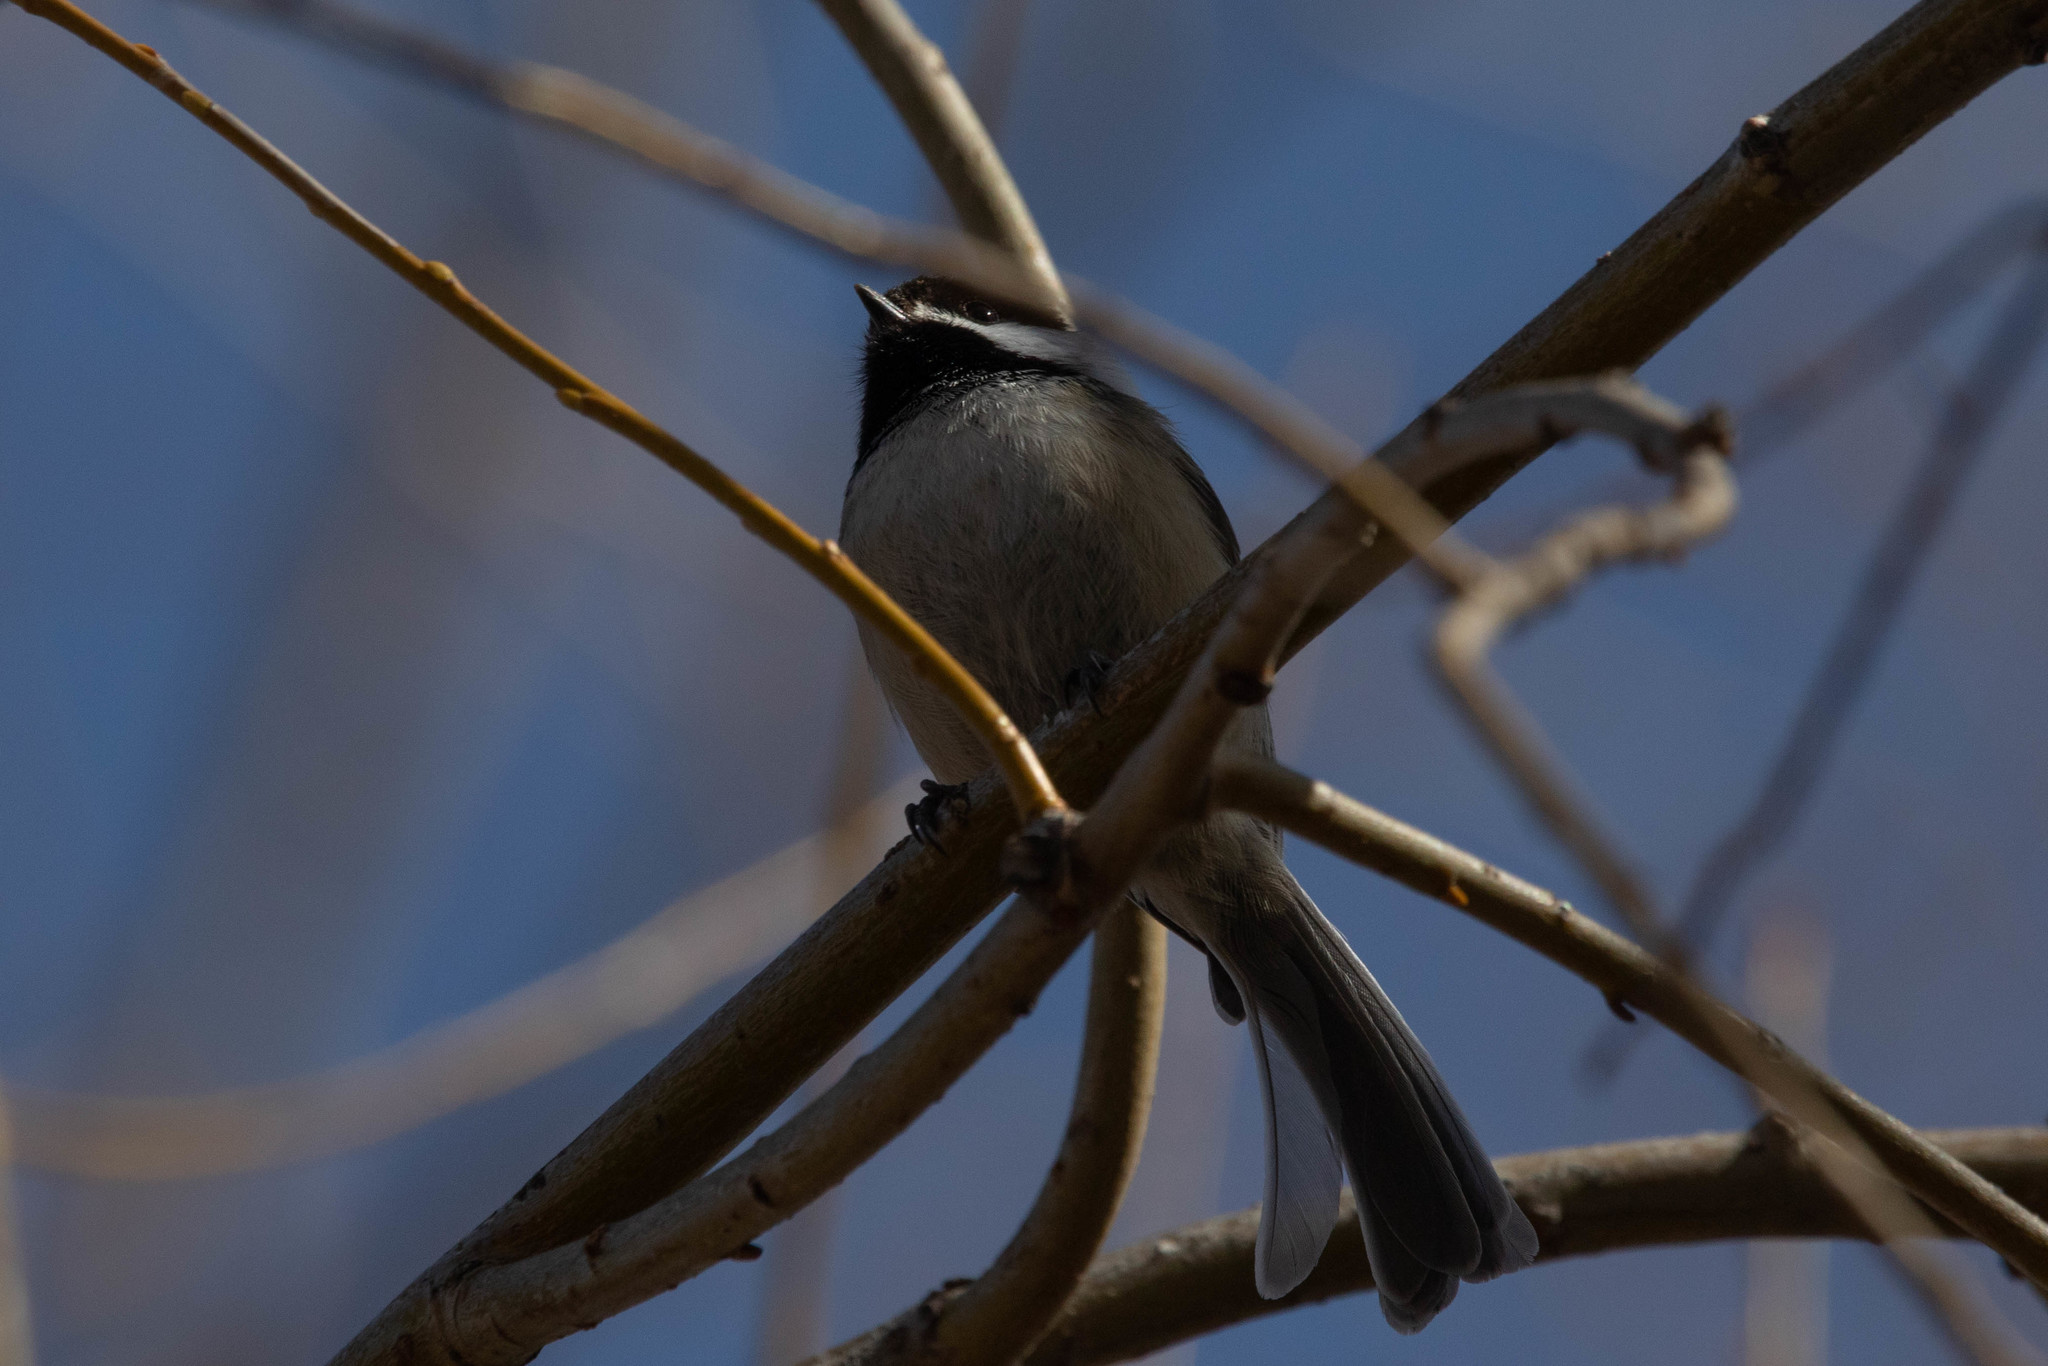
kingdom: Animalia
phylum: Chordata
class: Aves
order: Passeriformes
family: Paridae
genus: Poecile
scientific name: Poecile atricapillus
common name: Black-capped chickadee
